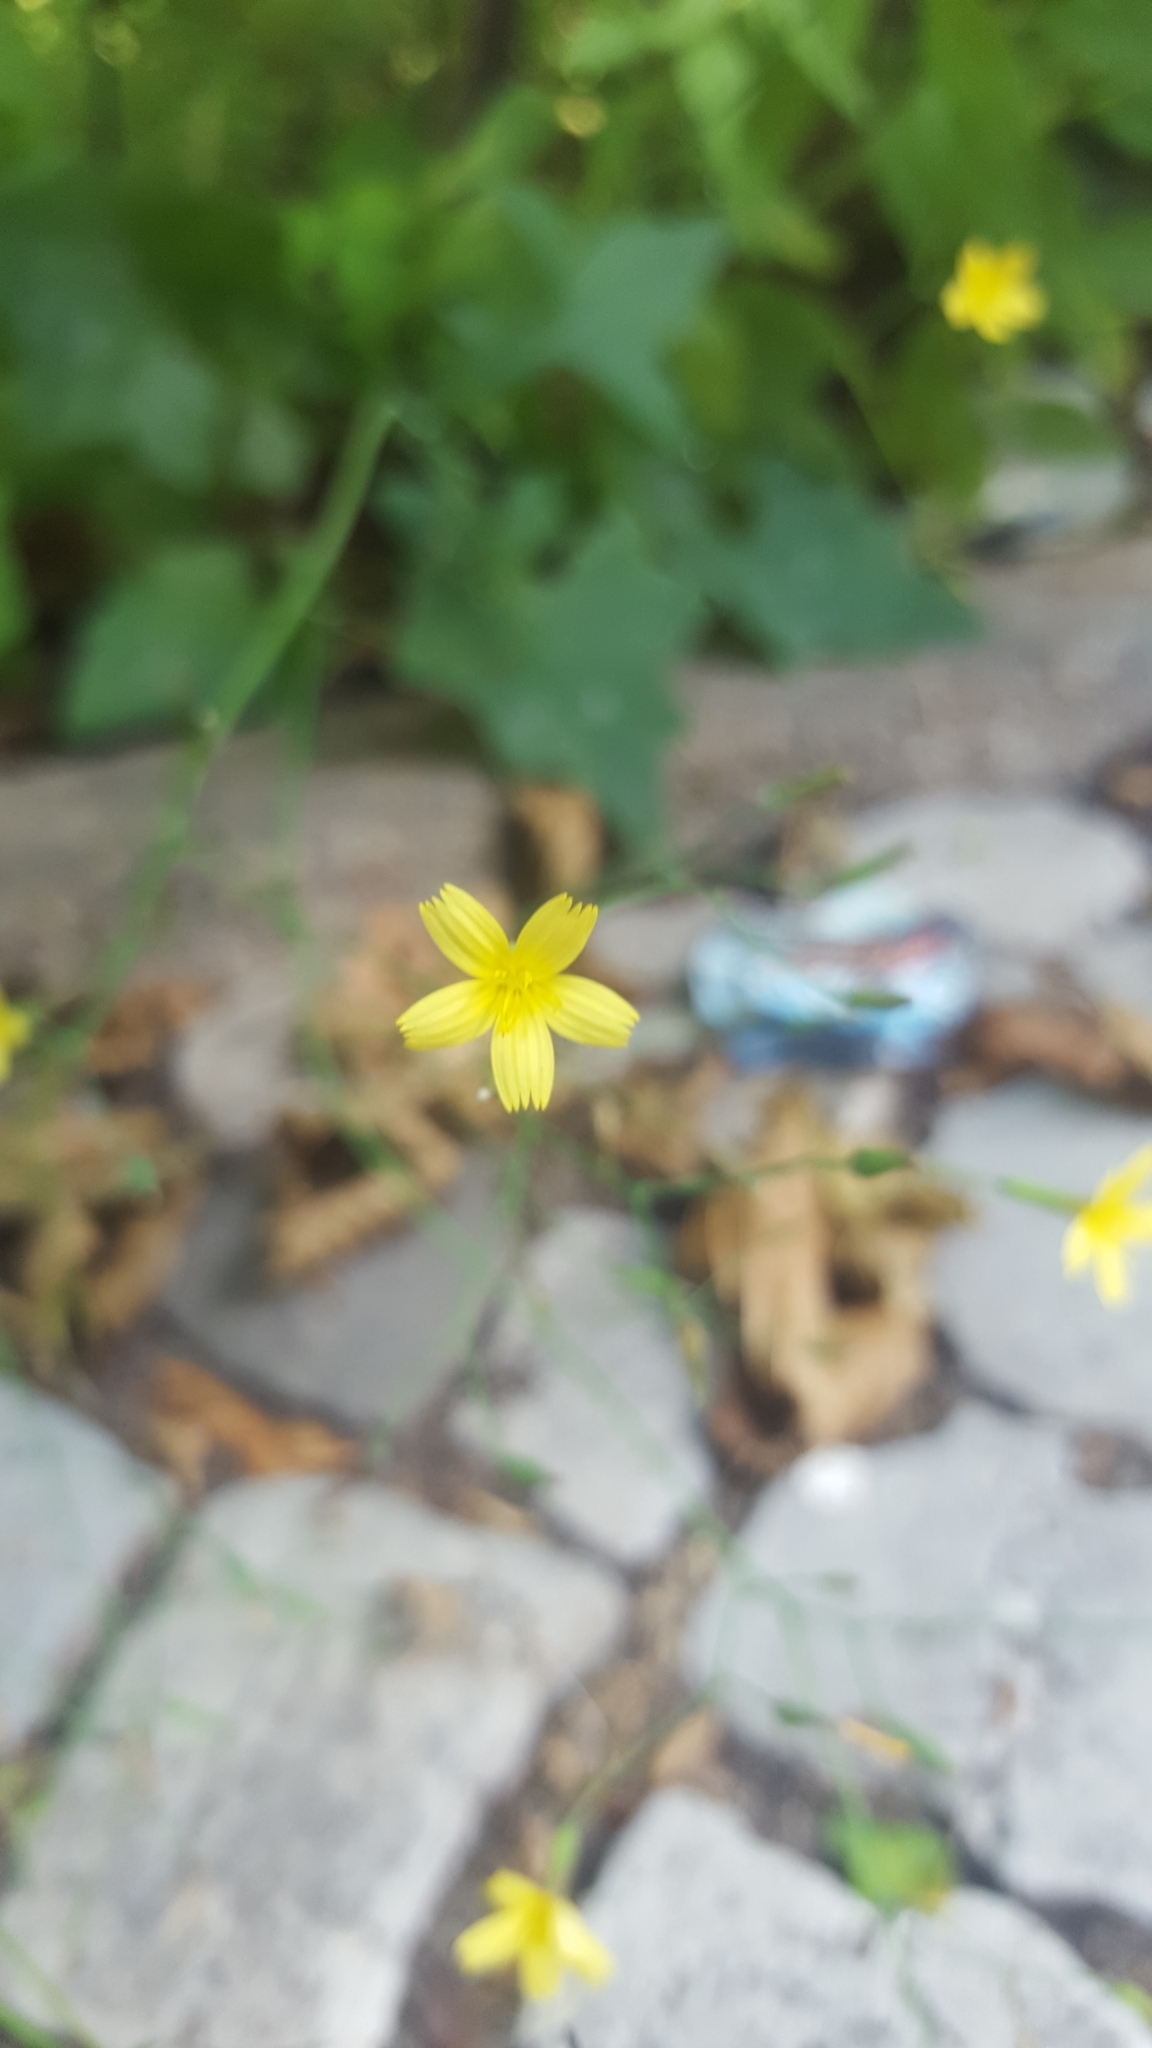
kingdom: Plantae
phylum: Tracheophyta
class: Magnoliopsida
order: Asterales
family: Asteraceae
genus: Mycelis
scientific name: Mycelis muralis
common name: Wall lettuce
